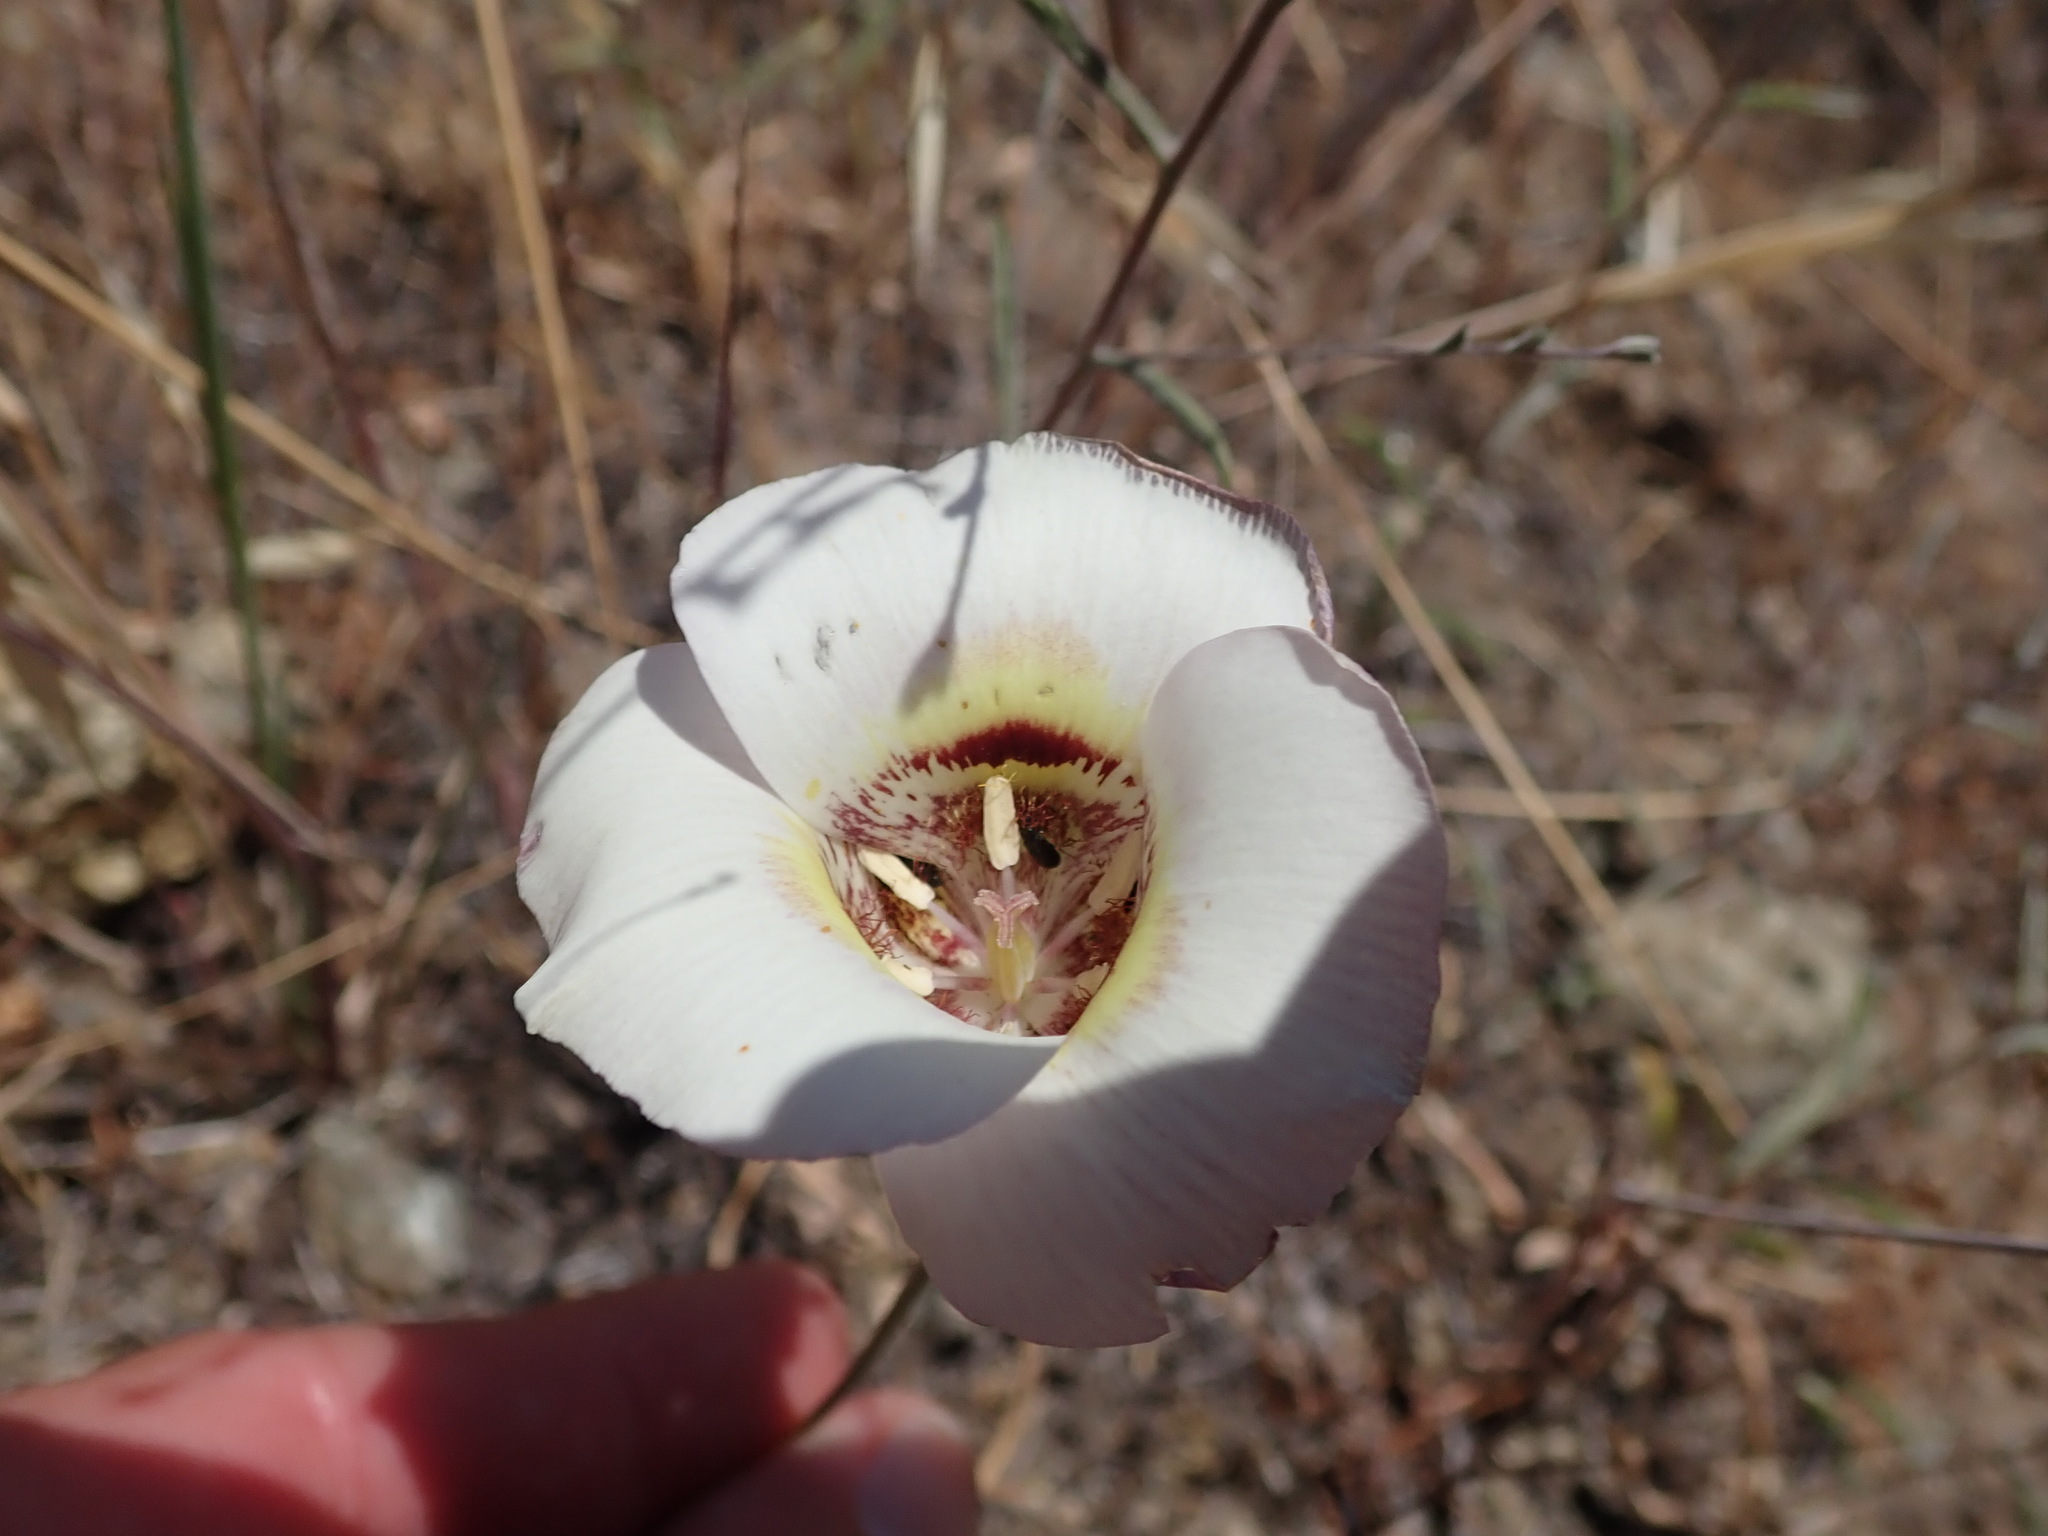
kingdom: Plantae
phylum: Tracheophyta
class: Liliopsida
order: Liliales
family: Liliaceae
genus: Calochortus
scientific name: Calochortus argillosus
